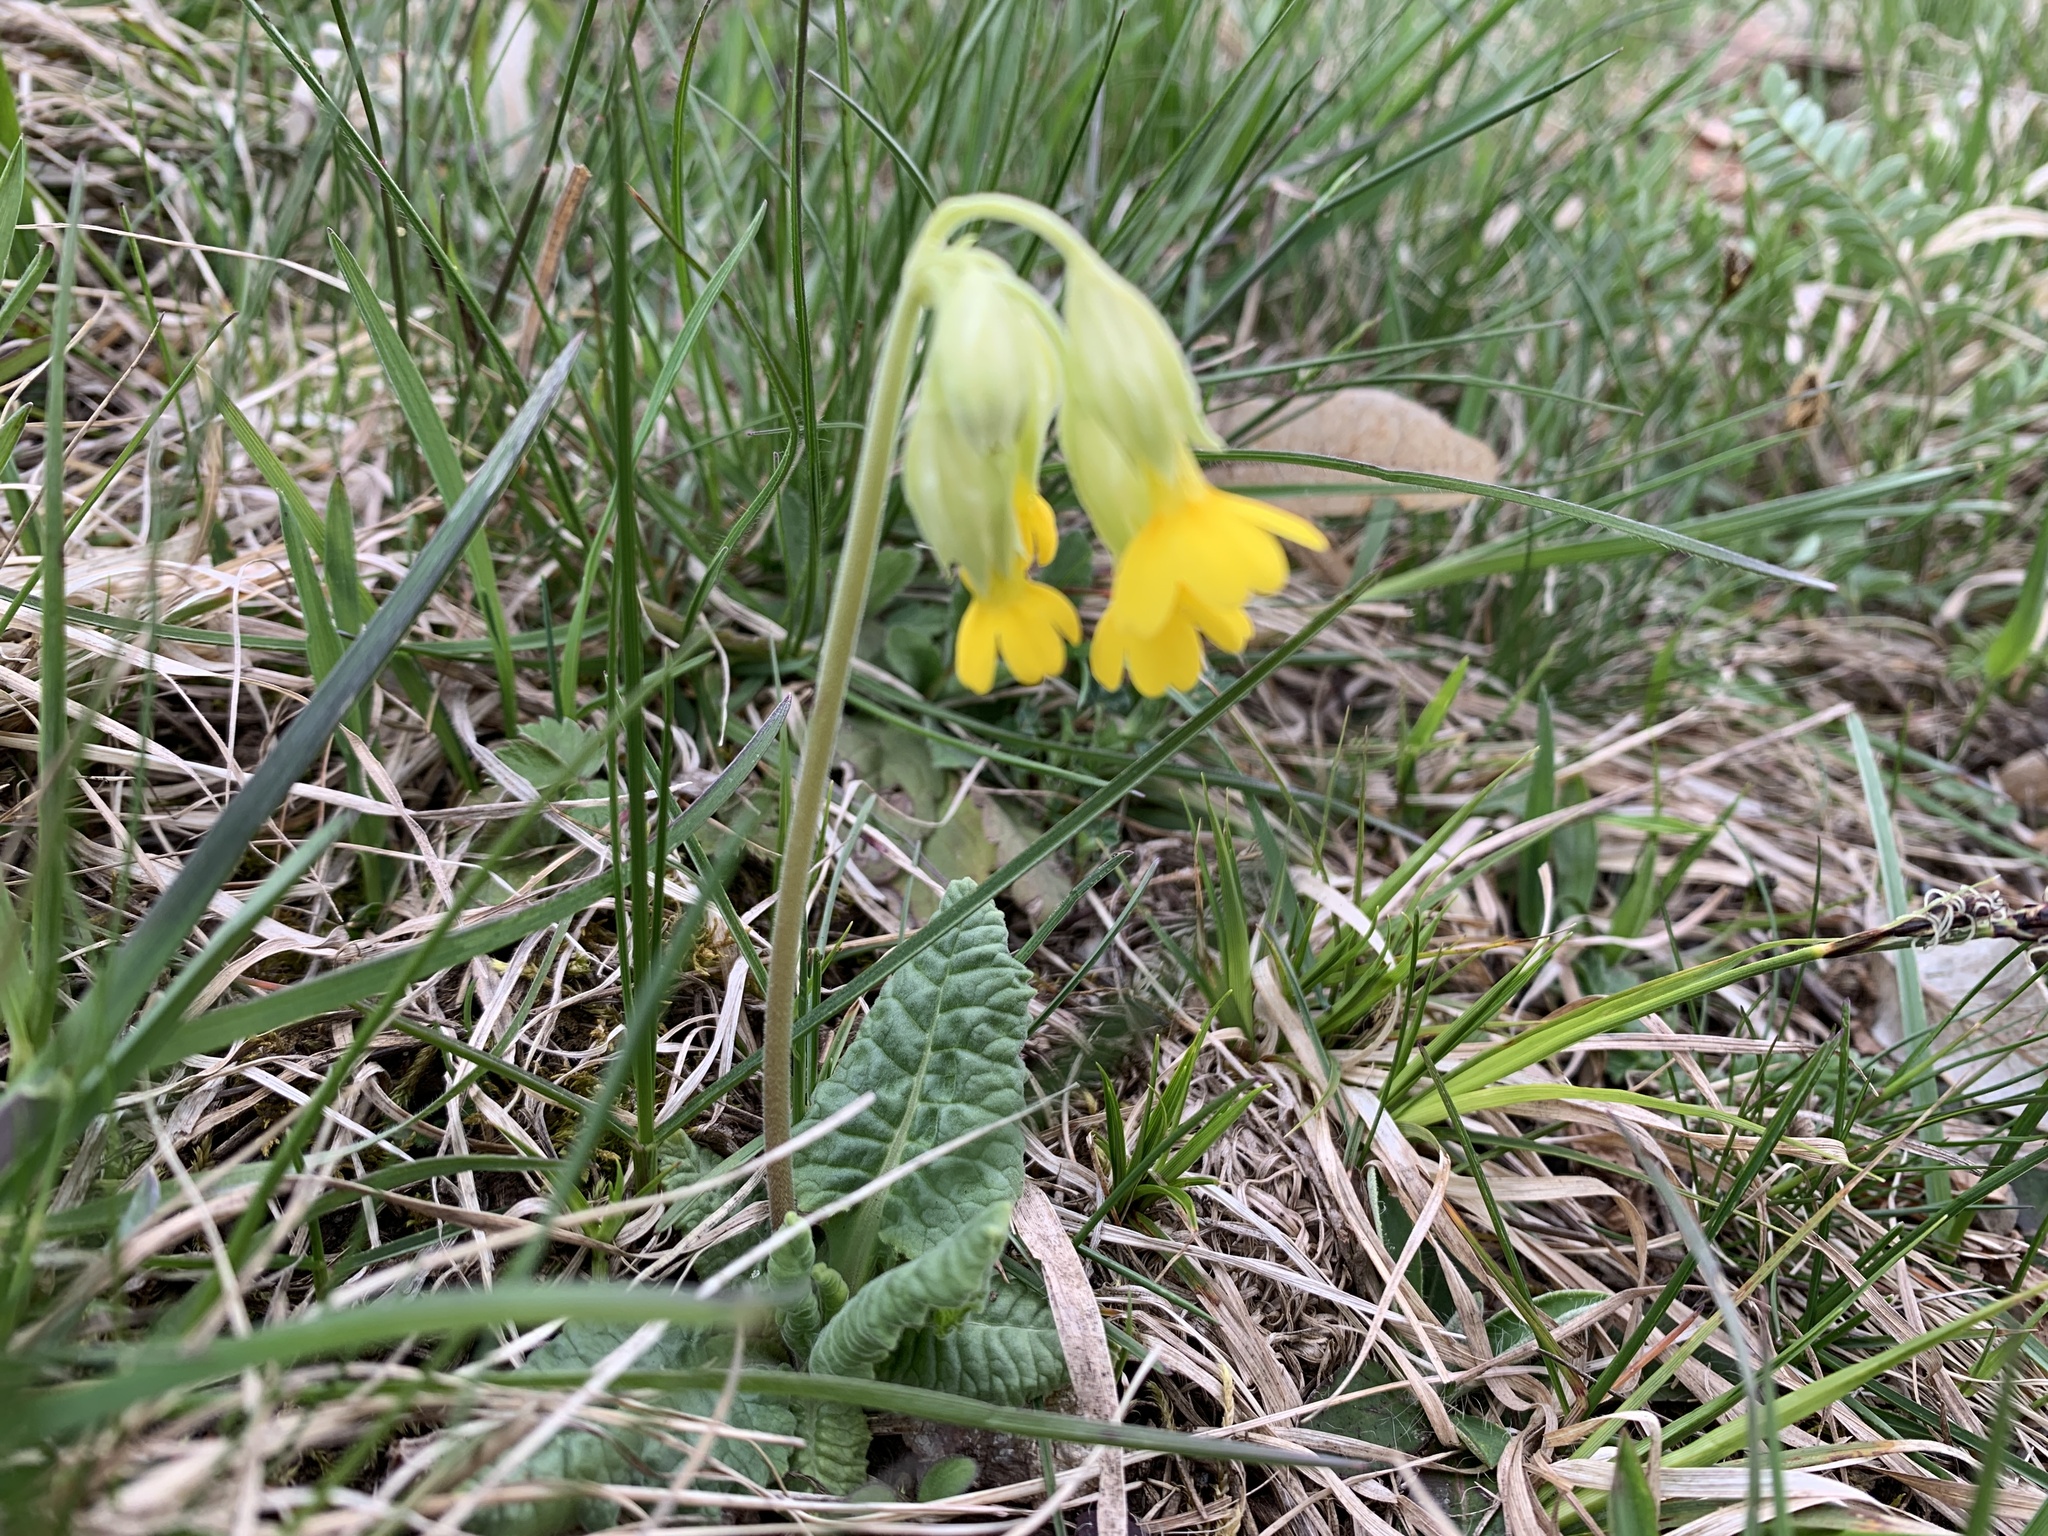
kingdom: Plantae
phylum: Tracheophyta
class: Magnoliopsida
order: Ericales
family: Primulaceae
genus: Primula
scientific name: Primula veris
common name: Cowslip
